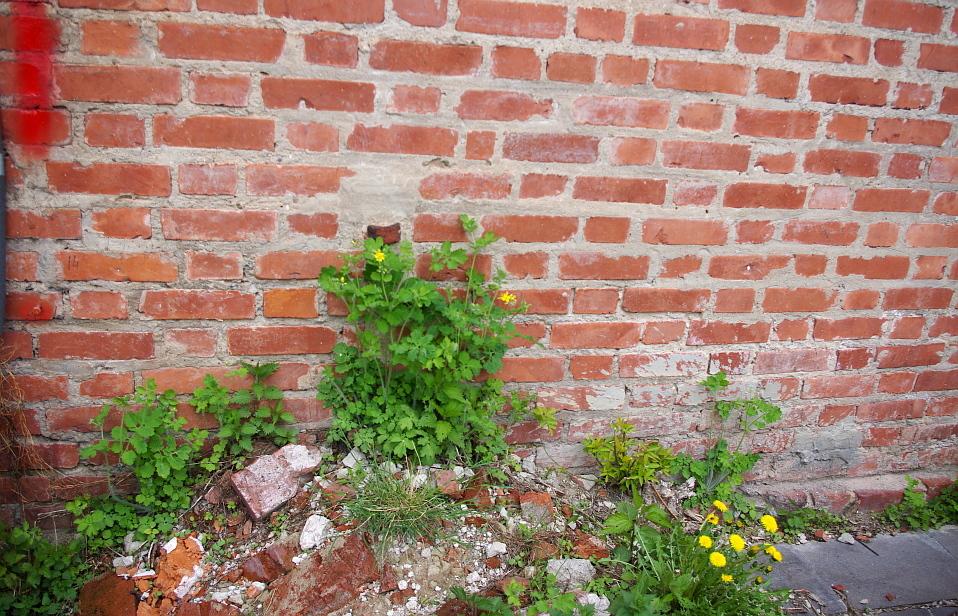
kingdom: Plantae
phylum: Tracheophyta
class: Magnoliopsida
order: Ranunculales
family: Papaveraceae
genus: Chelidonium
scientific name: Chelidonium majus
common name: Greater celandine
